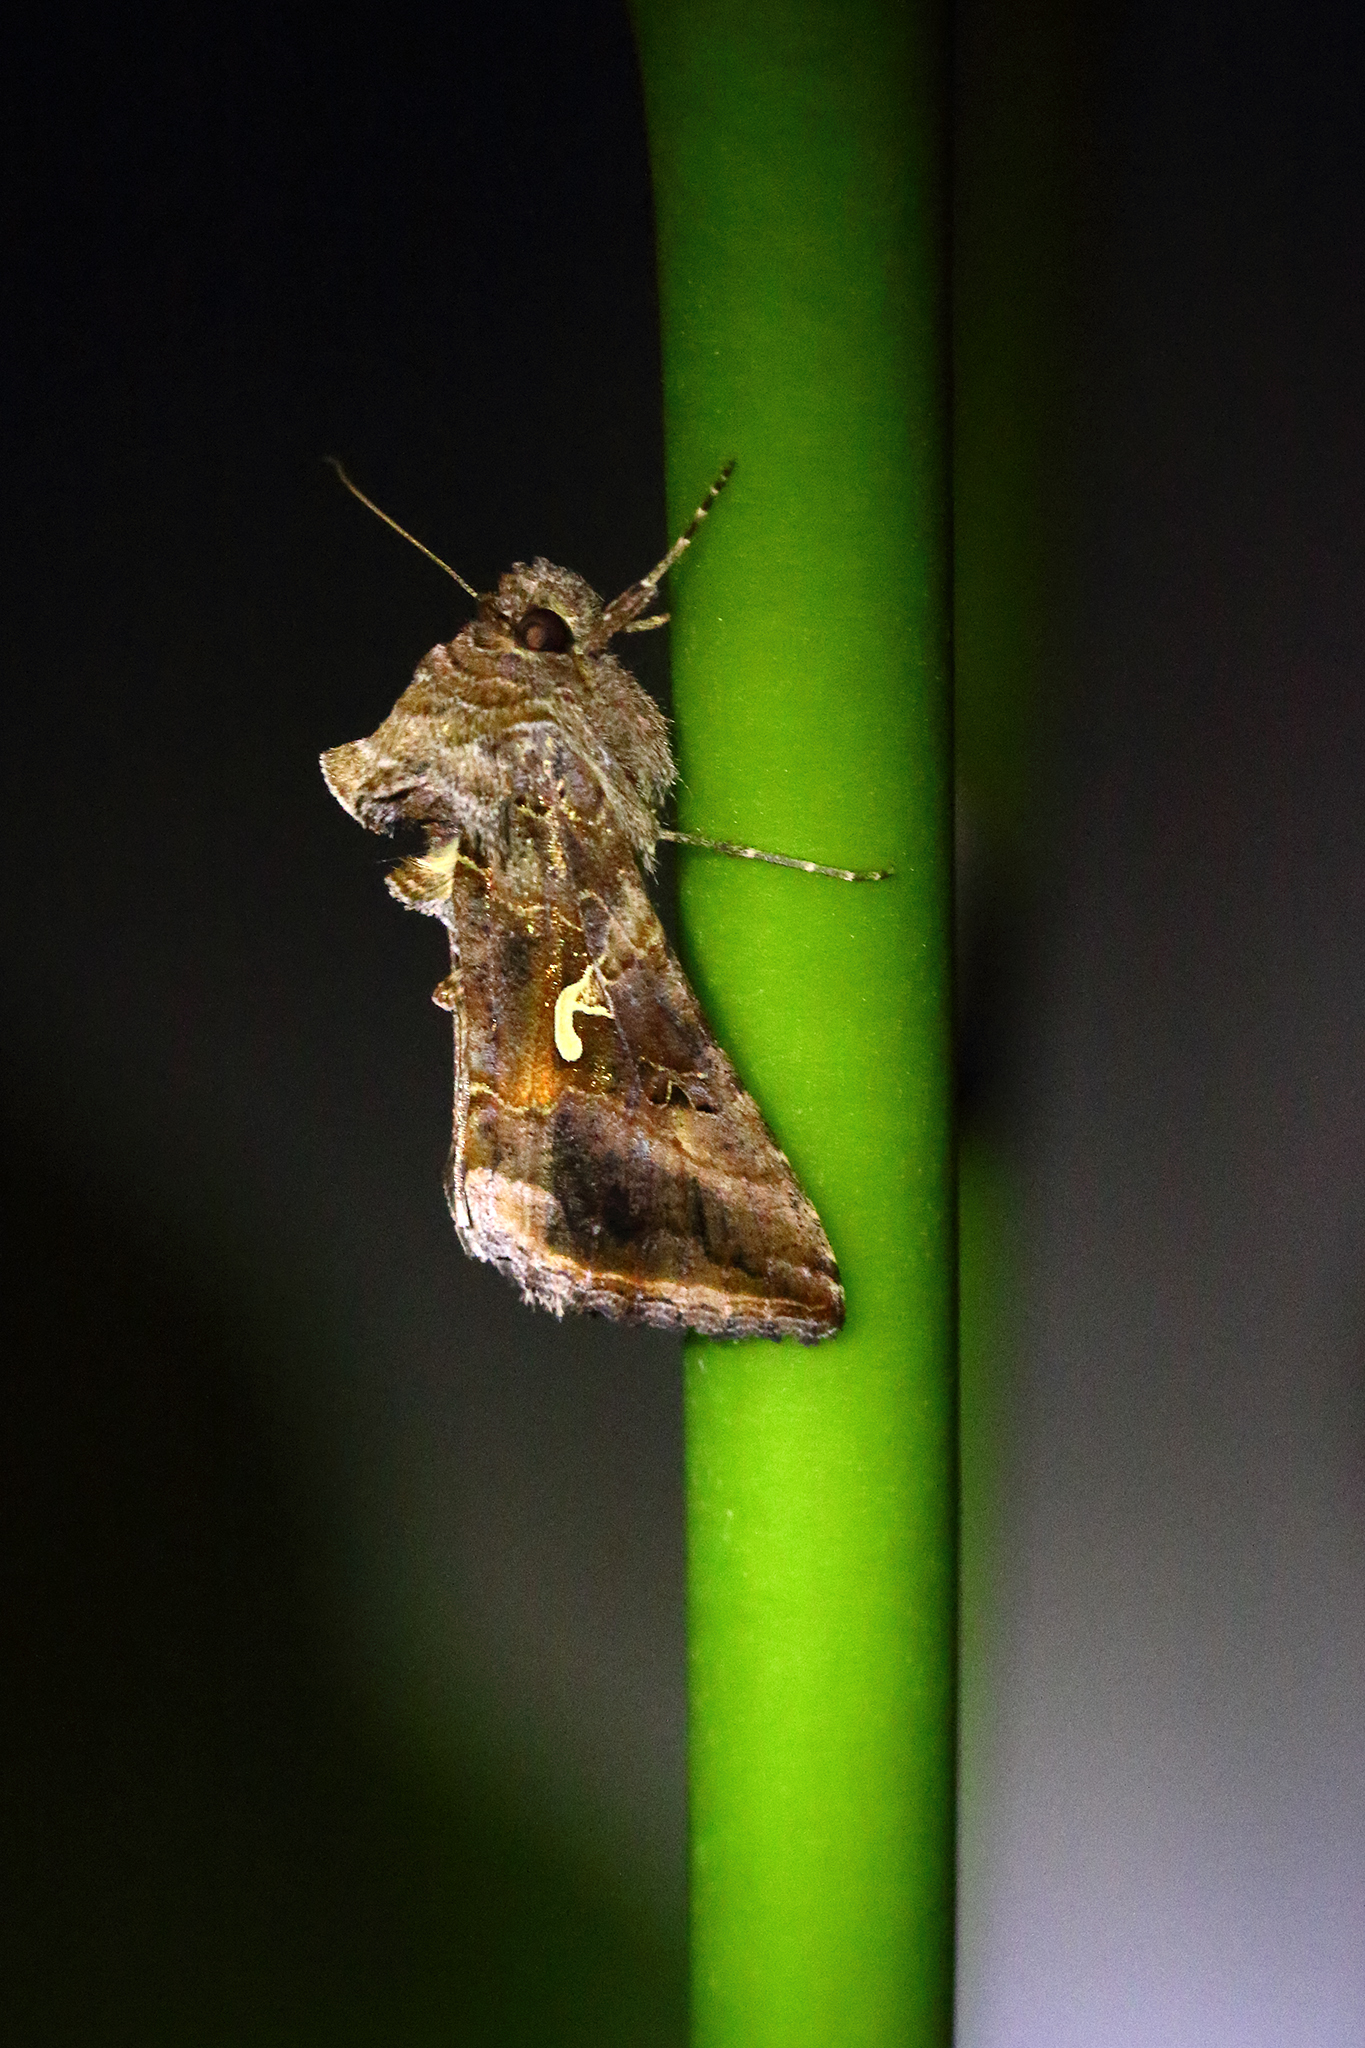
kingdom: Animalia
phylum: Arthropoda
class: Insecta
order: Lepidoptera
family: Noctuidae
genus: Autographa
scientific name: Autographa gamma
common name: Silver y
